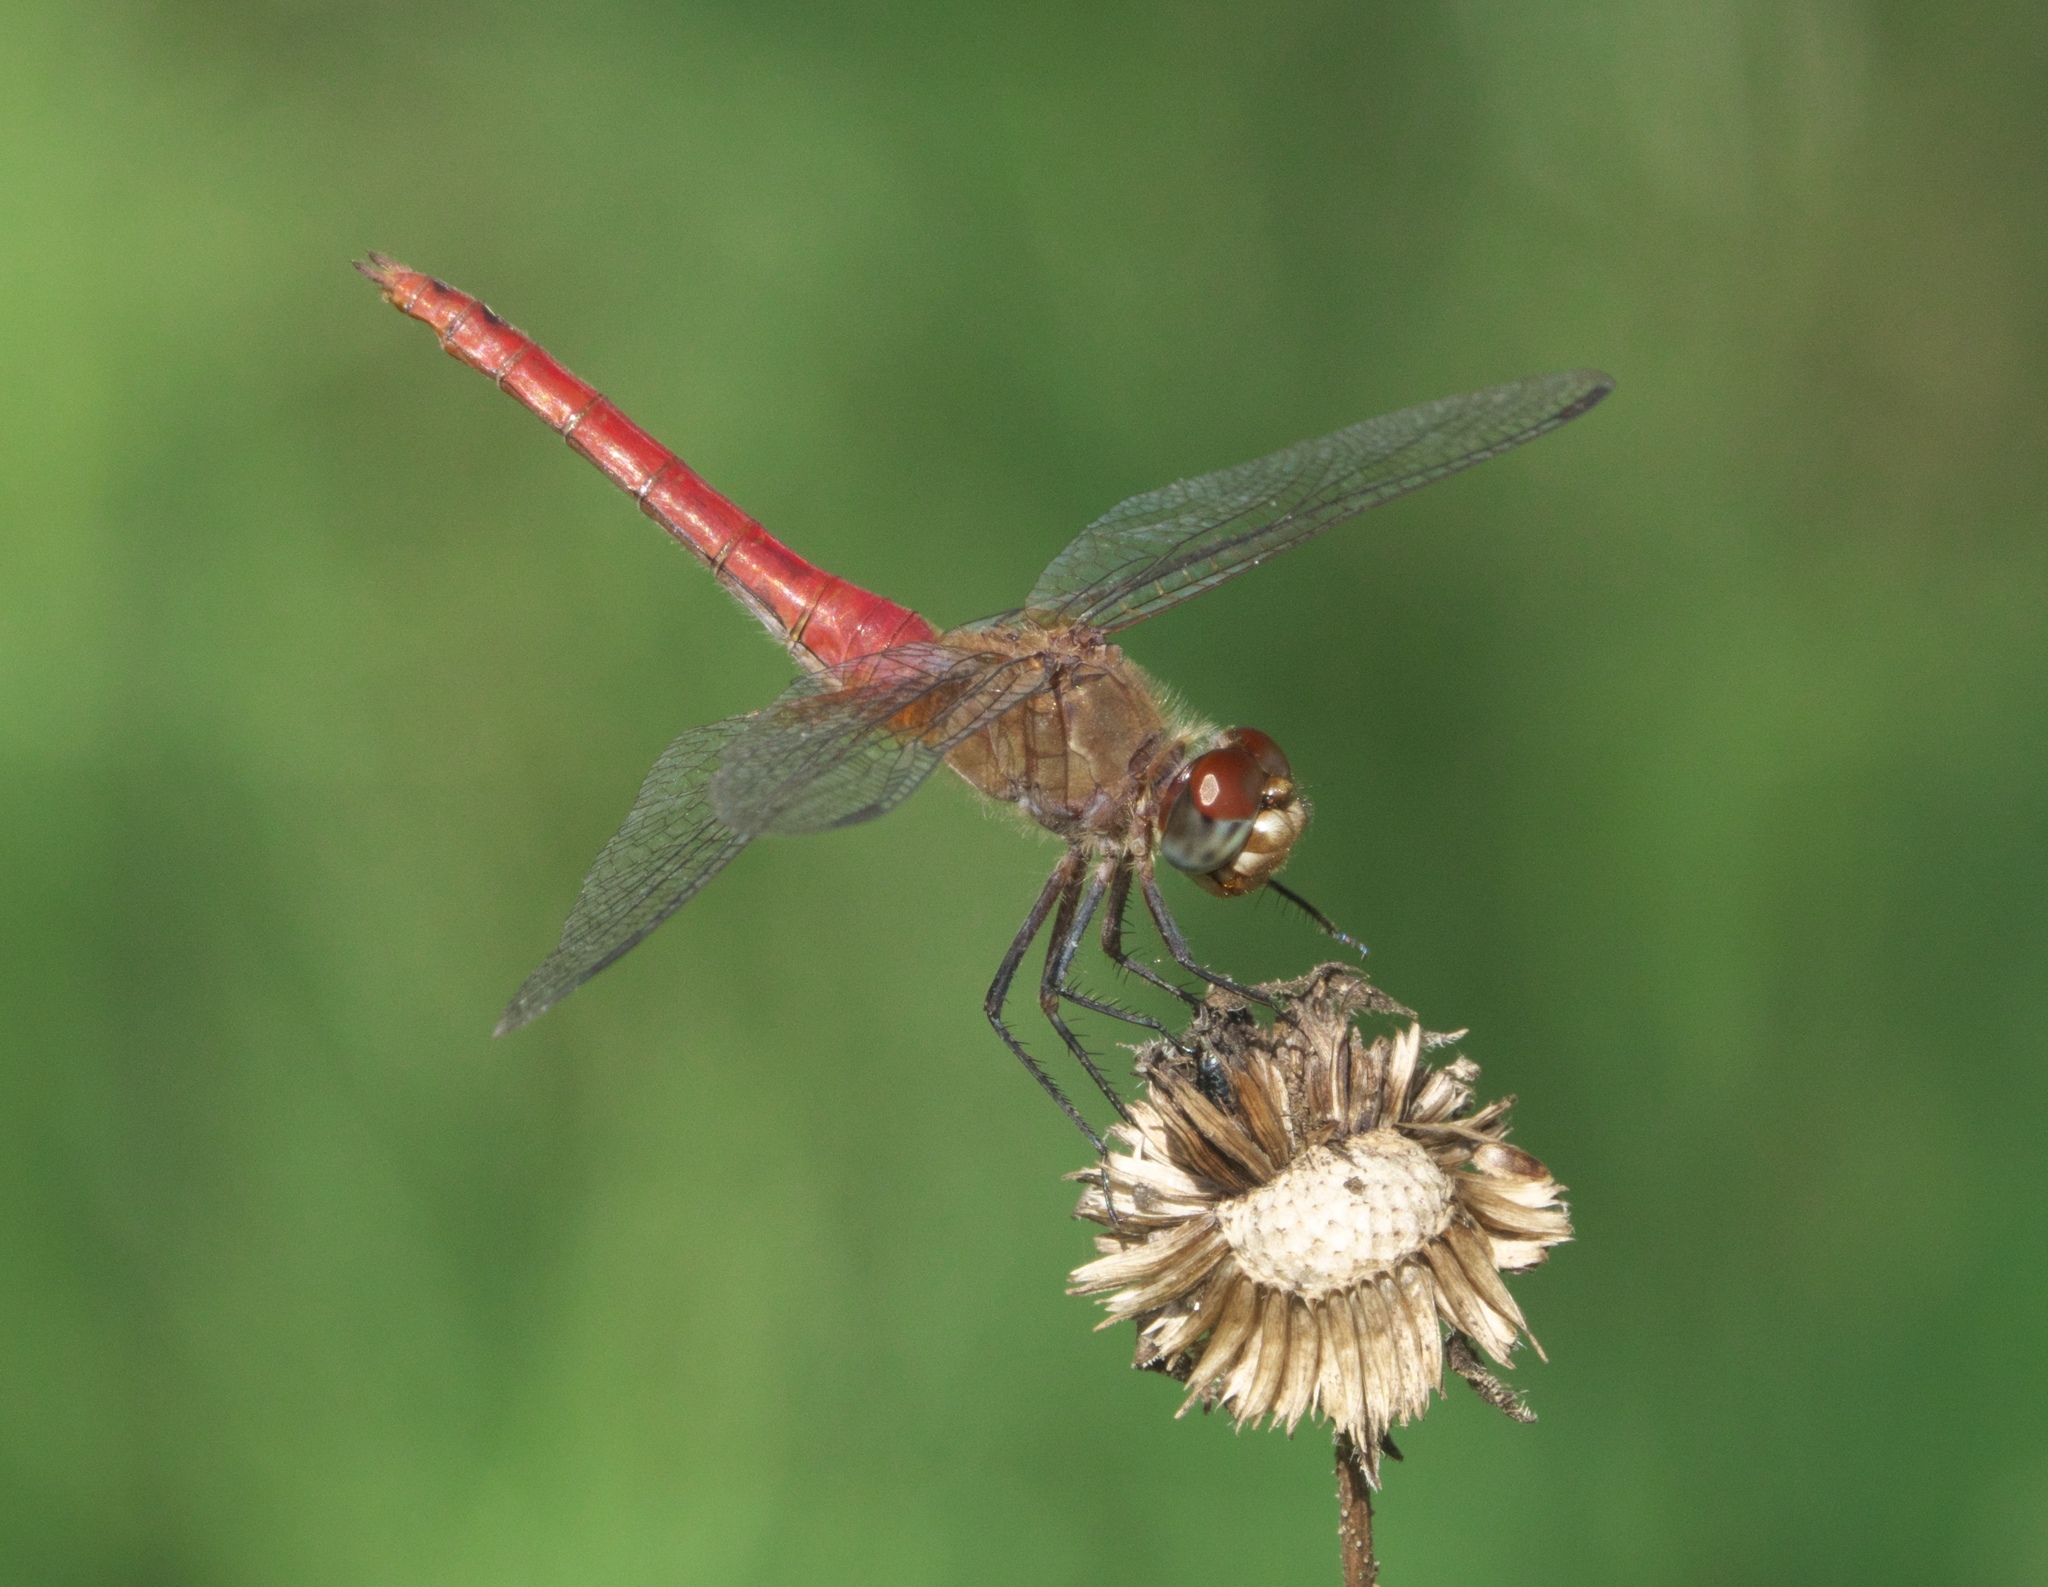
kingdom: Animalia
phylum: Arthropoda
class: Insecta
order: Odonata
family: Libellulidae
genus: Brachymesia
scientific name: Brachymesia furcata
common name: Red-taled pennant
